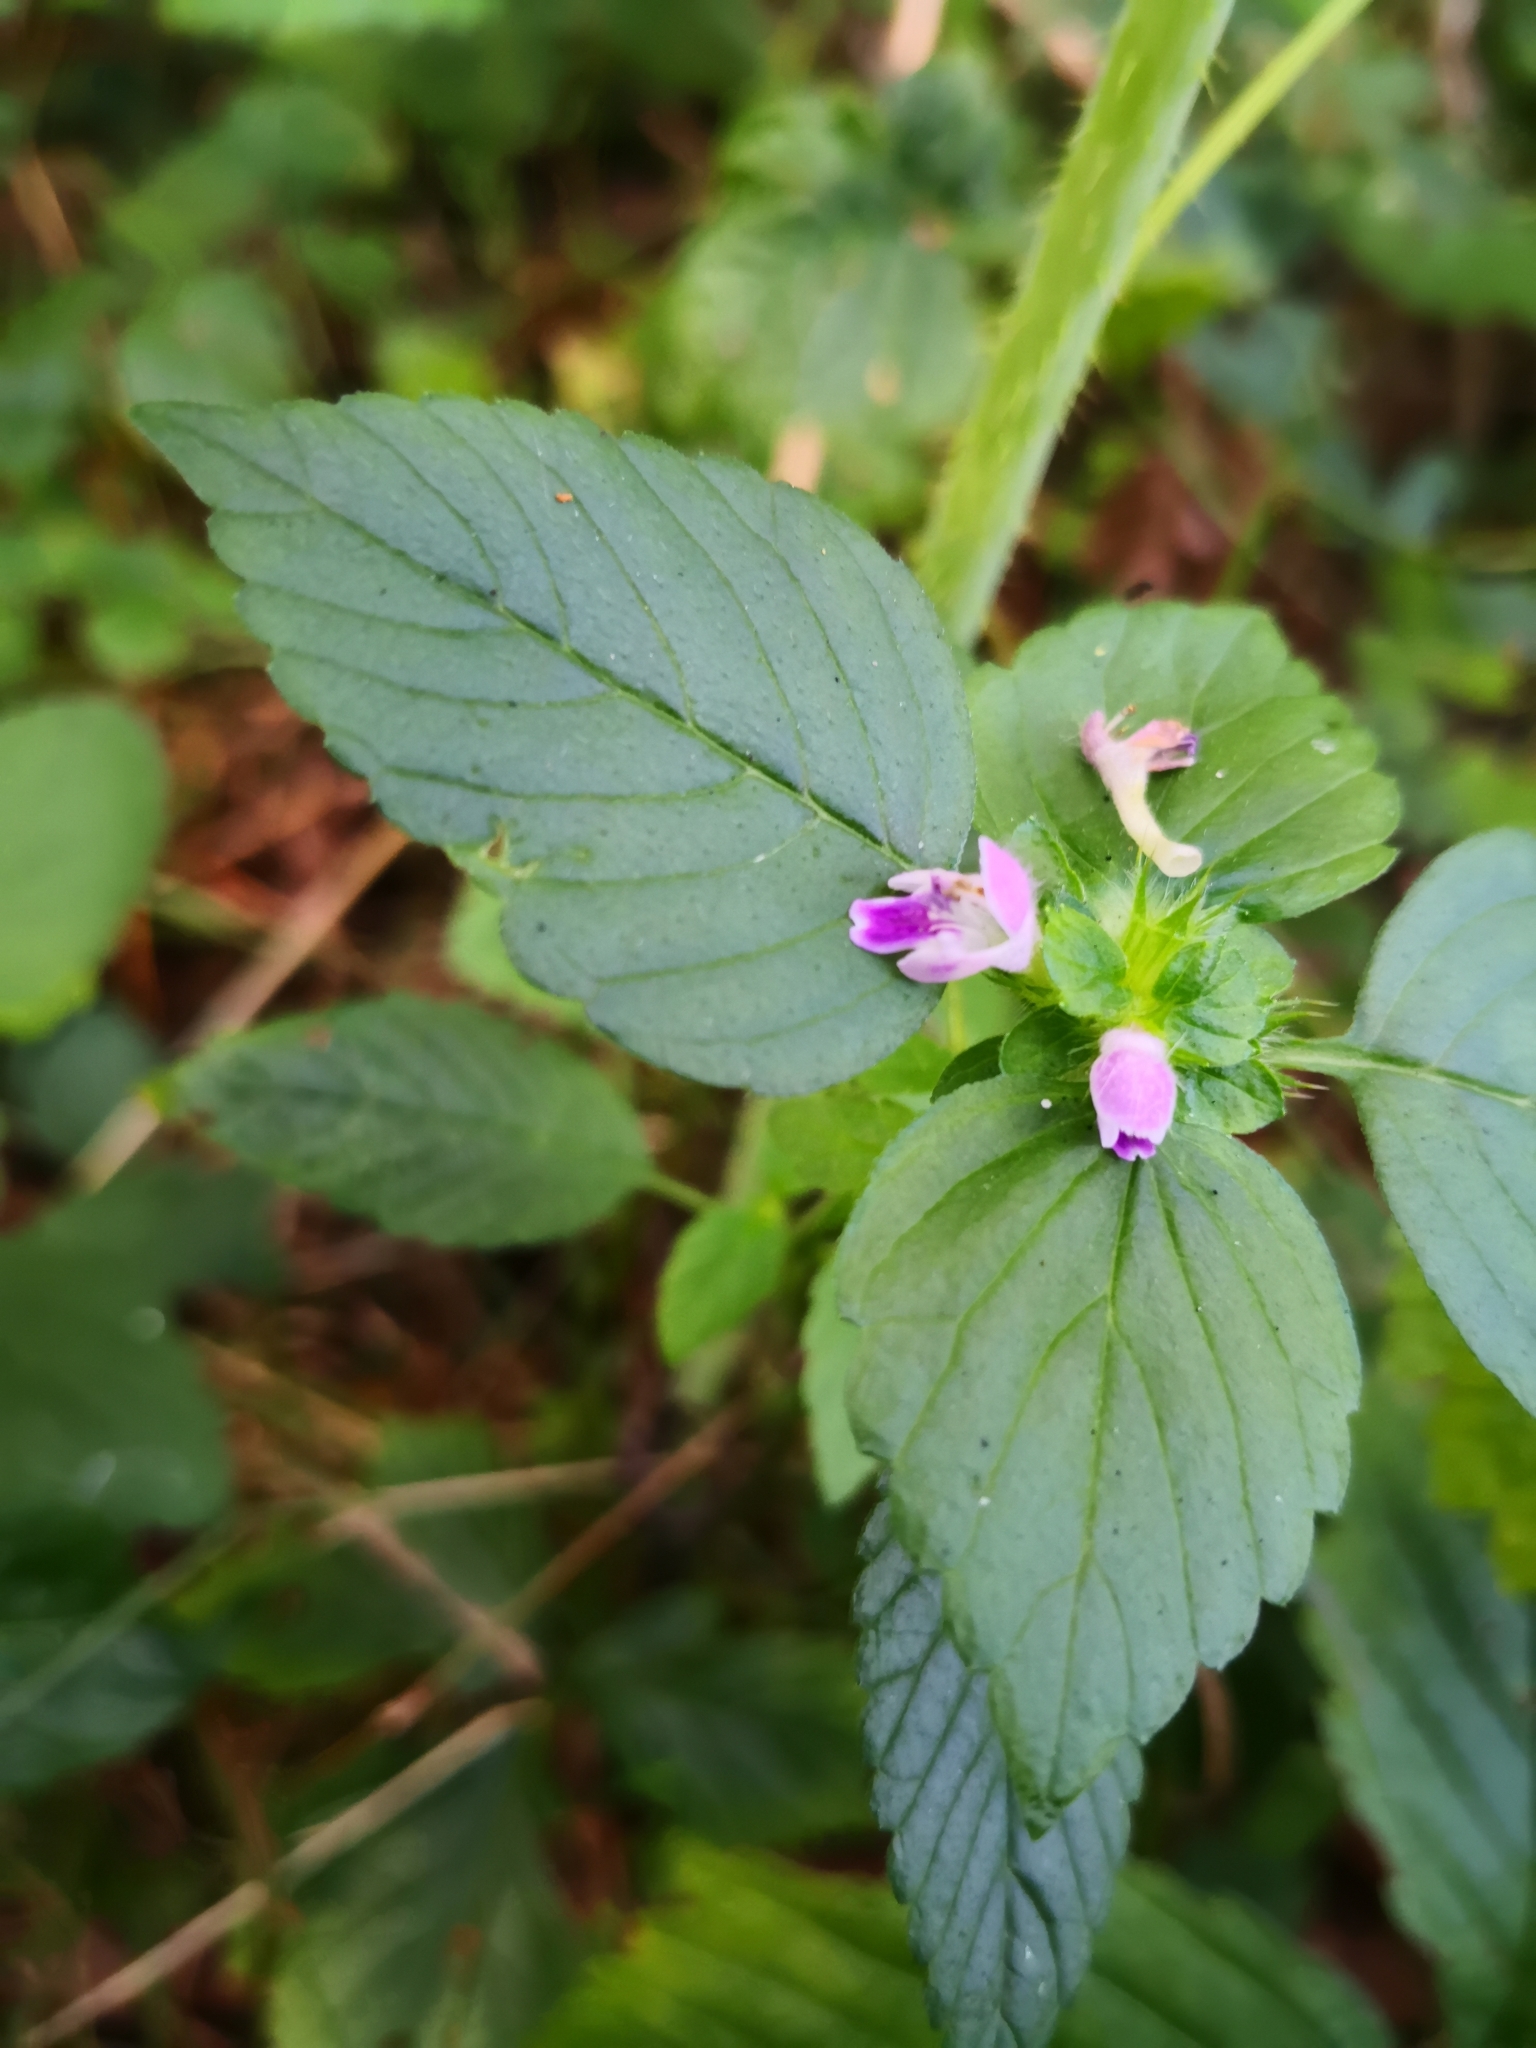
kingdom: Plantae
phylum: Tracheophyta
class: Magnoliopsida
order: Lamiales
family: Lamiaceae
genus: Galeopsis
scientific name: Galeopsis bifida
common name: Bifid hemp-nettle
